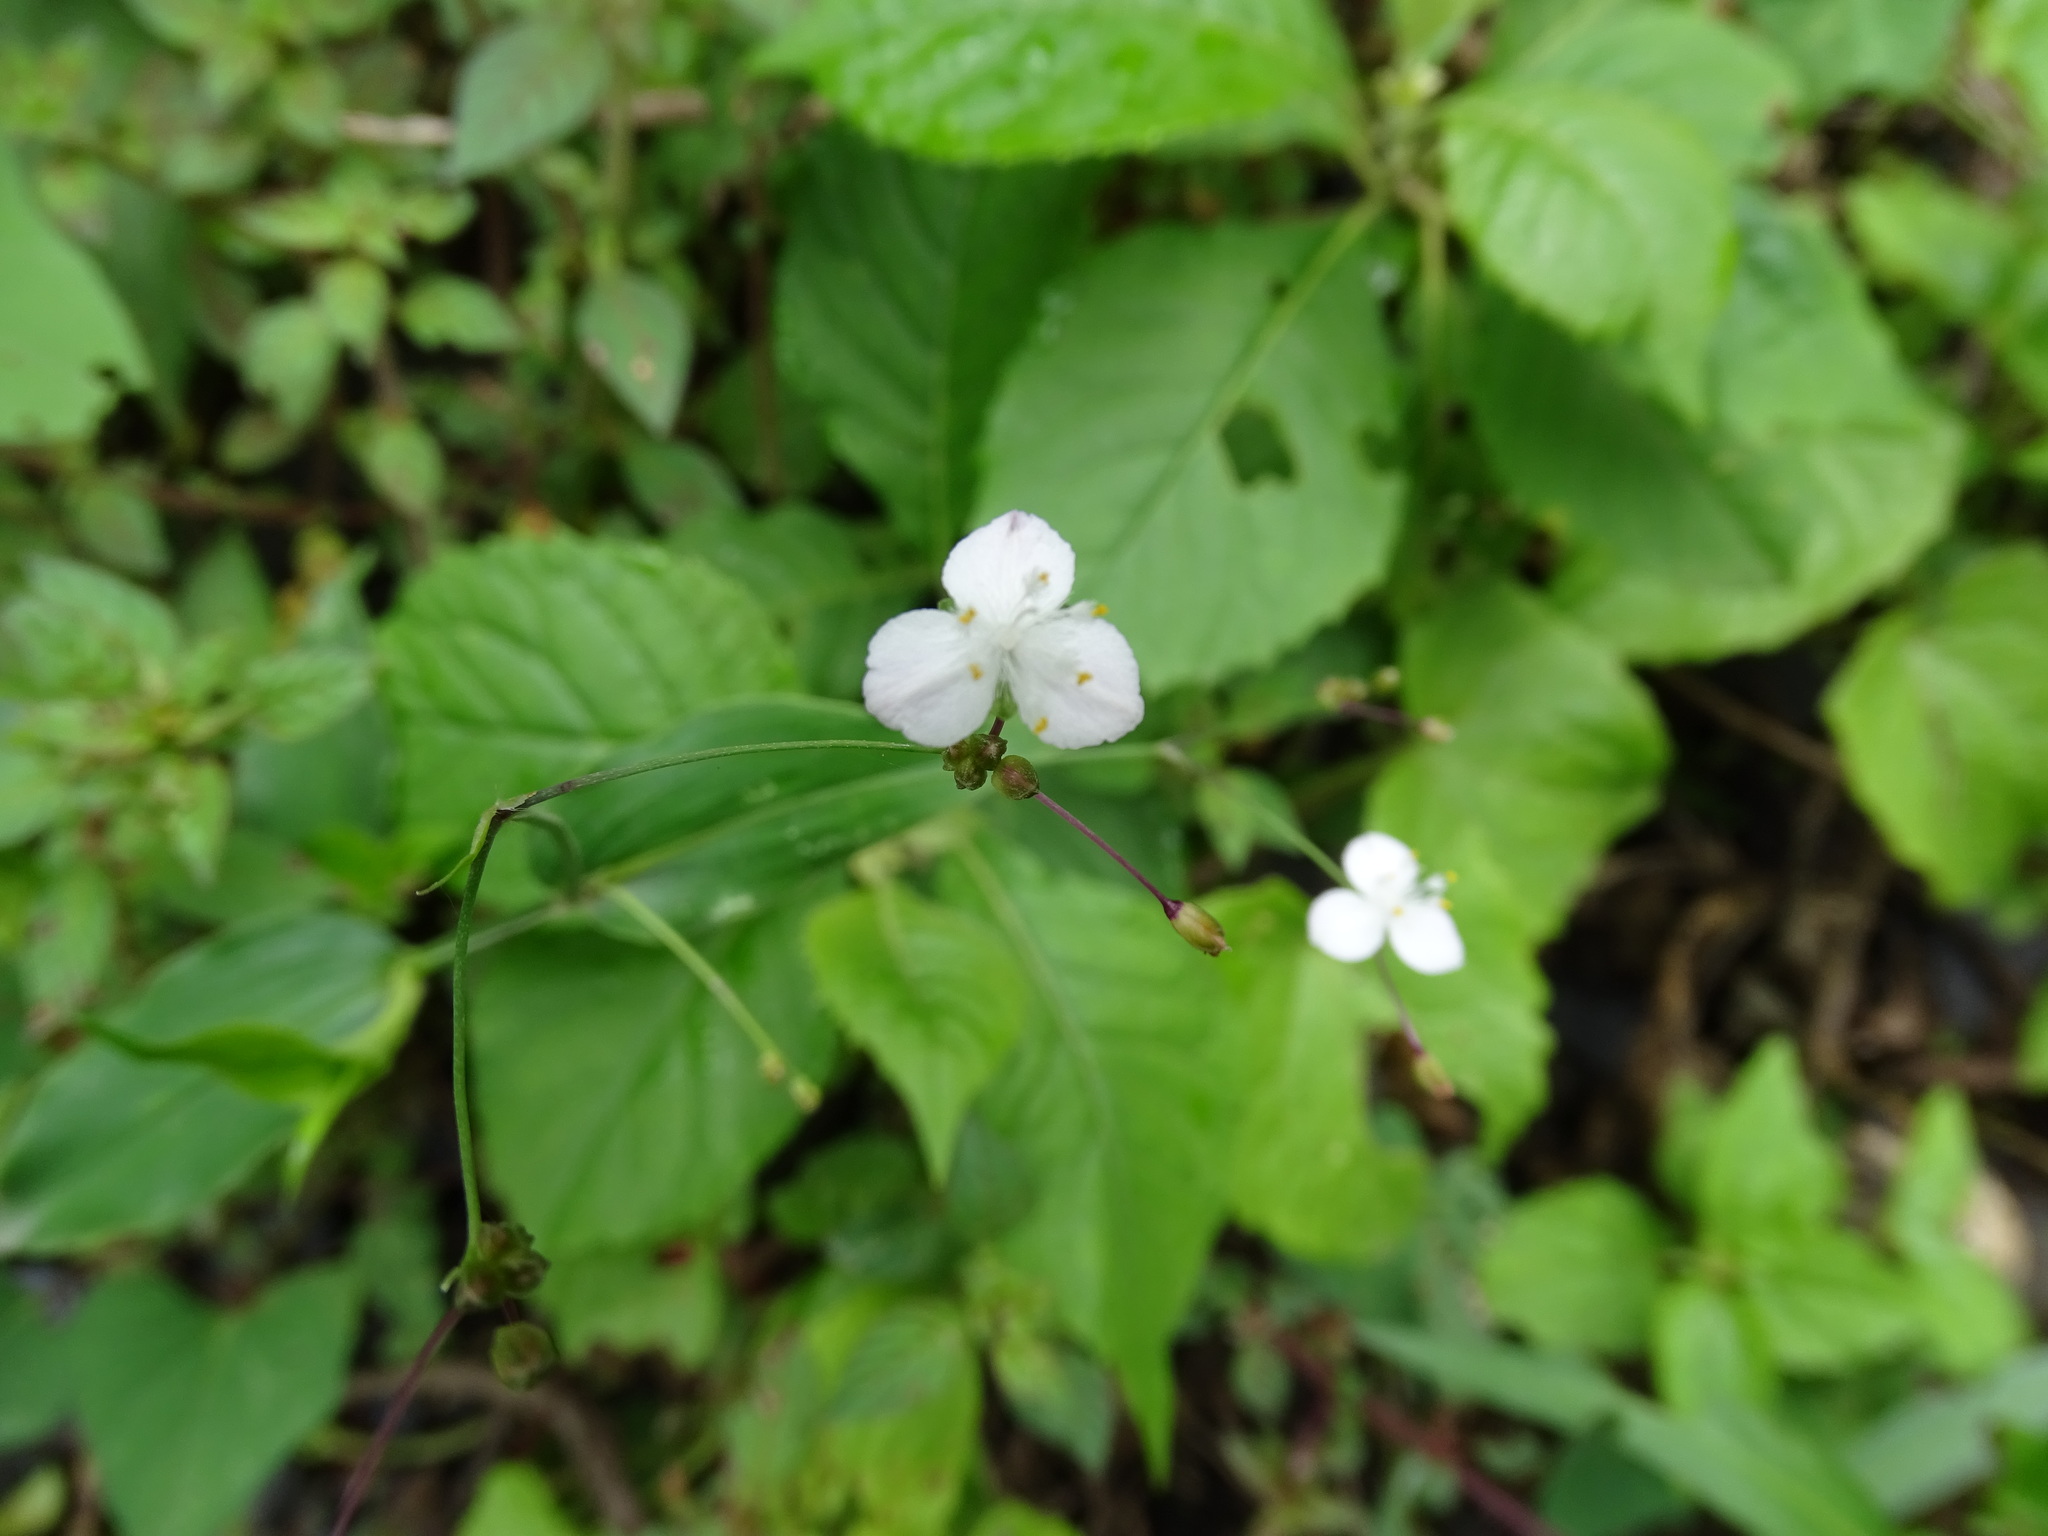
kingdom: Plantae
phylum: Tracheophyta
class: Liliopsida
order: Commelinales
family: Commelinaceae
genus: Gibasis
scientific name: Gibasis pellucida
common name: Dotted bridalveil
